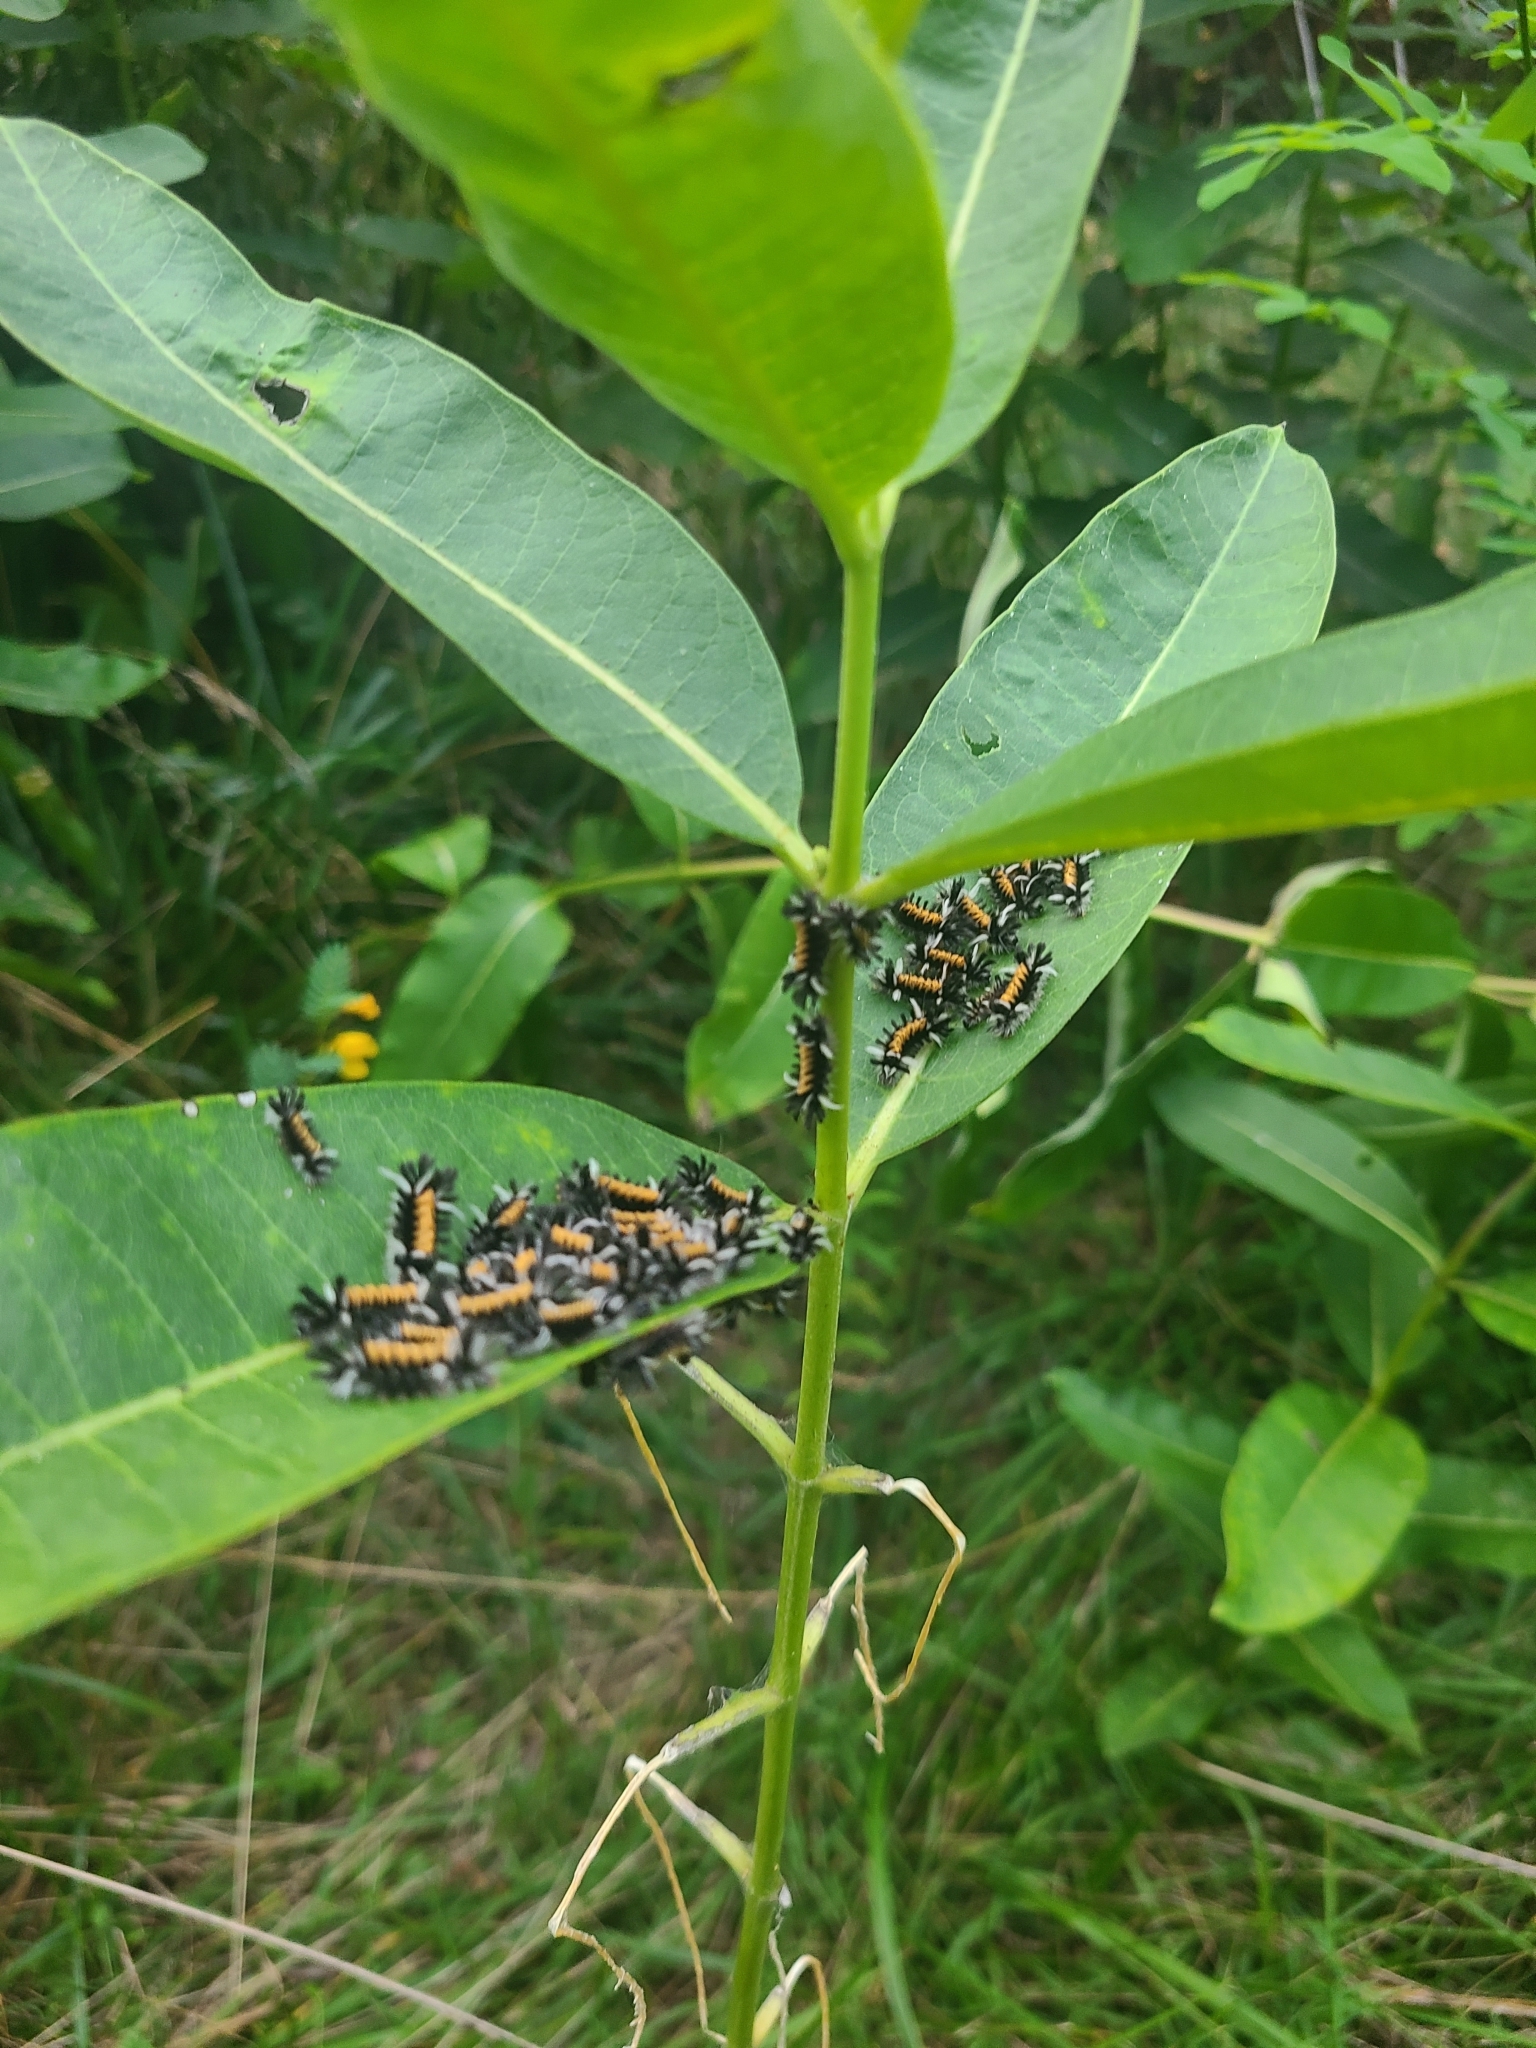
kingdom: Animalia
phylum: Arthropoda
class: Insecta
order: Lepidoptera
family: Erebidae
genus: Euchaetes
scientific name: Euchaetes egle
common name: Milkweed tussock moth
